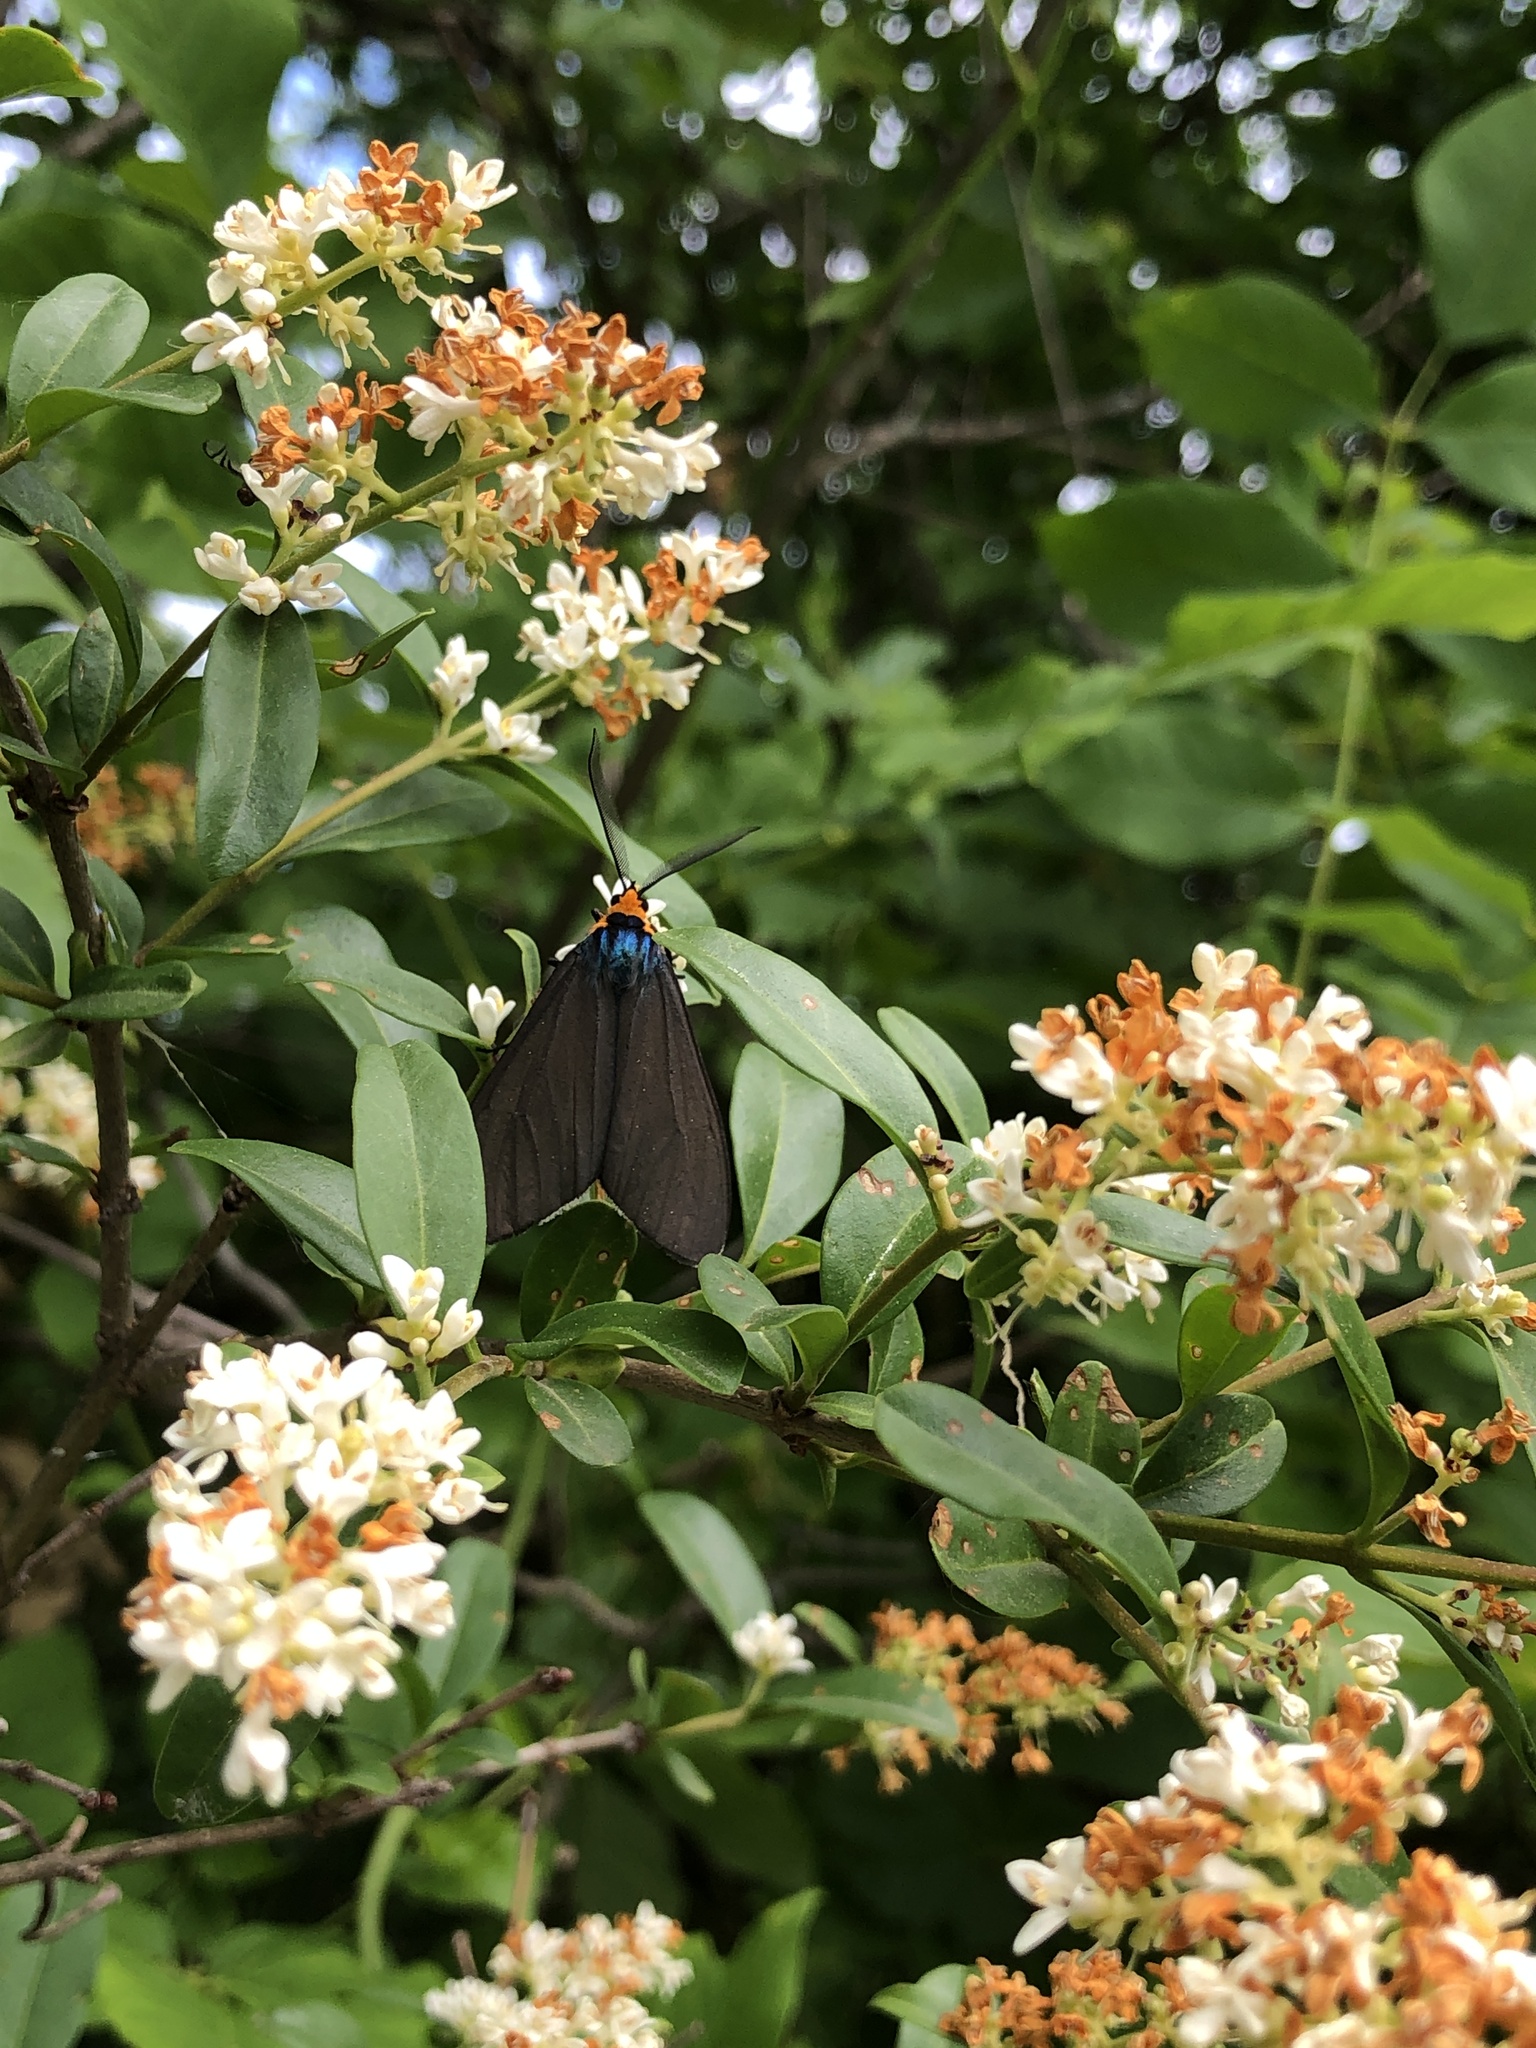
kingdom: Animalia
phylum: Arthropoda
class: Insecta
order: Lepidoptera
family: Erebidae
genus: Ctenucha
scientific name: Ctenucha virginica
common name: Virginia ctenucha moth
